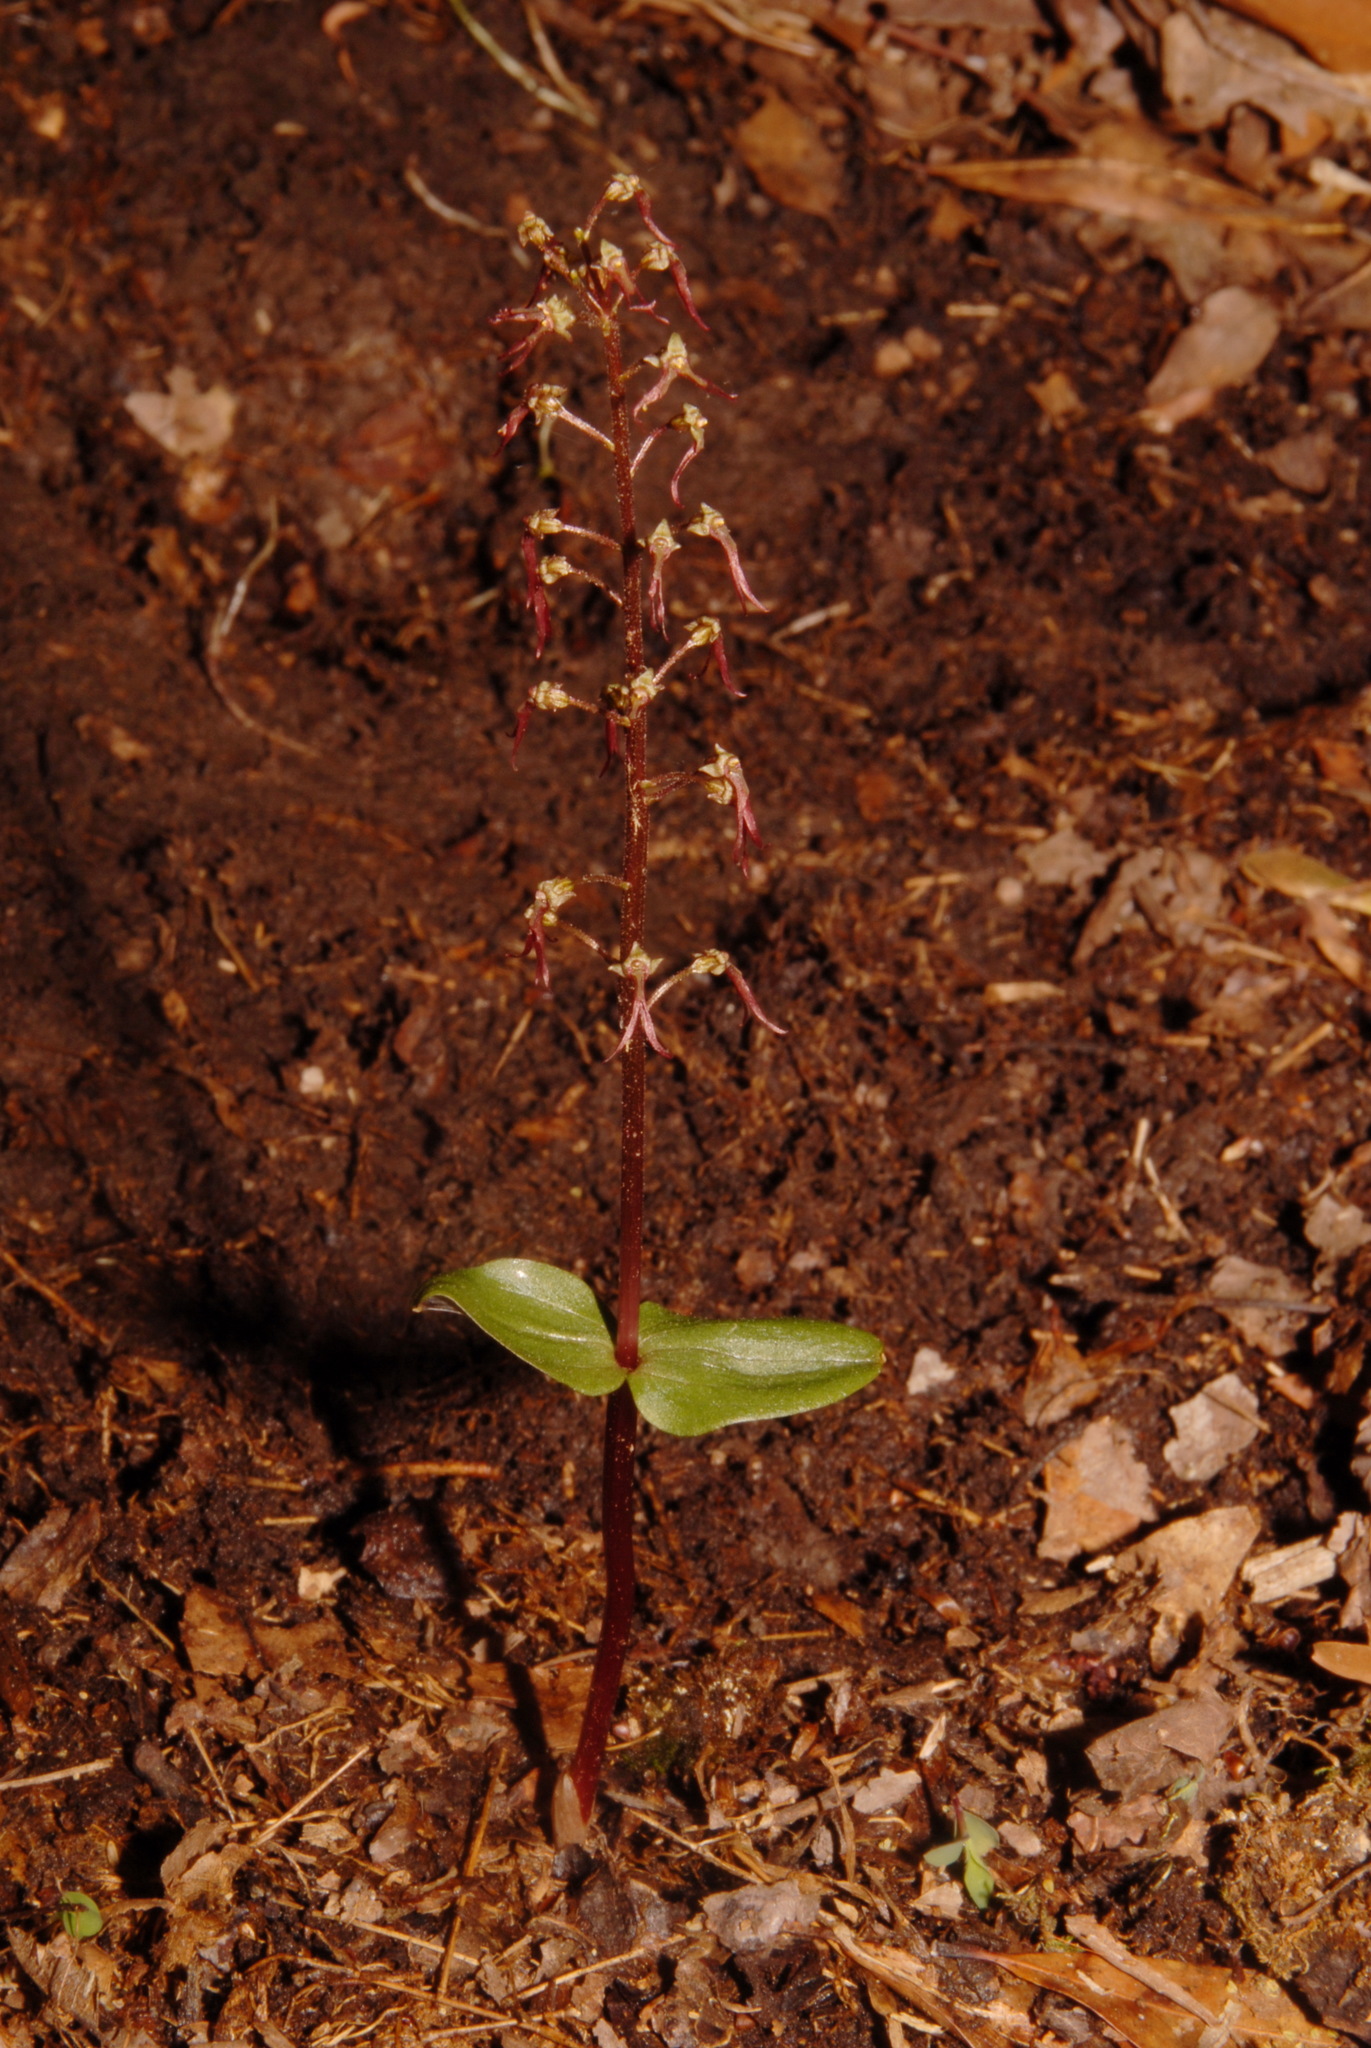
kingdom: Plantae
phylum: Tracheophyta
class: Liliopsida
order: Asparagales
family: Orchidaceae
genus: Neottia
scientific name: Neottia bifolia
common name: Southern twayblade
